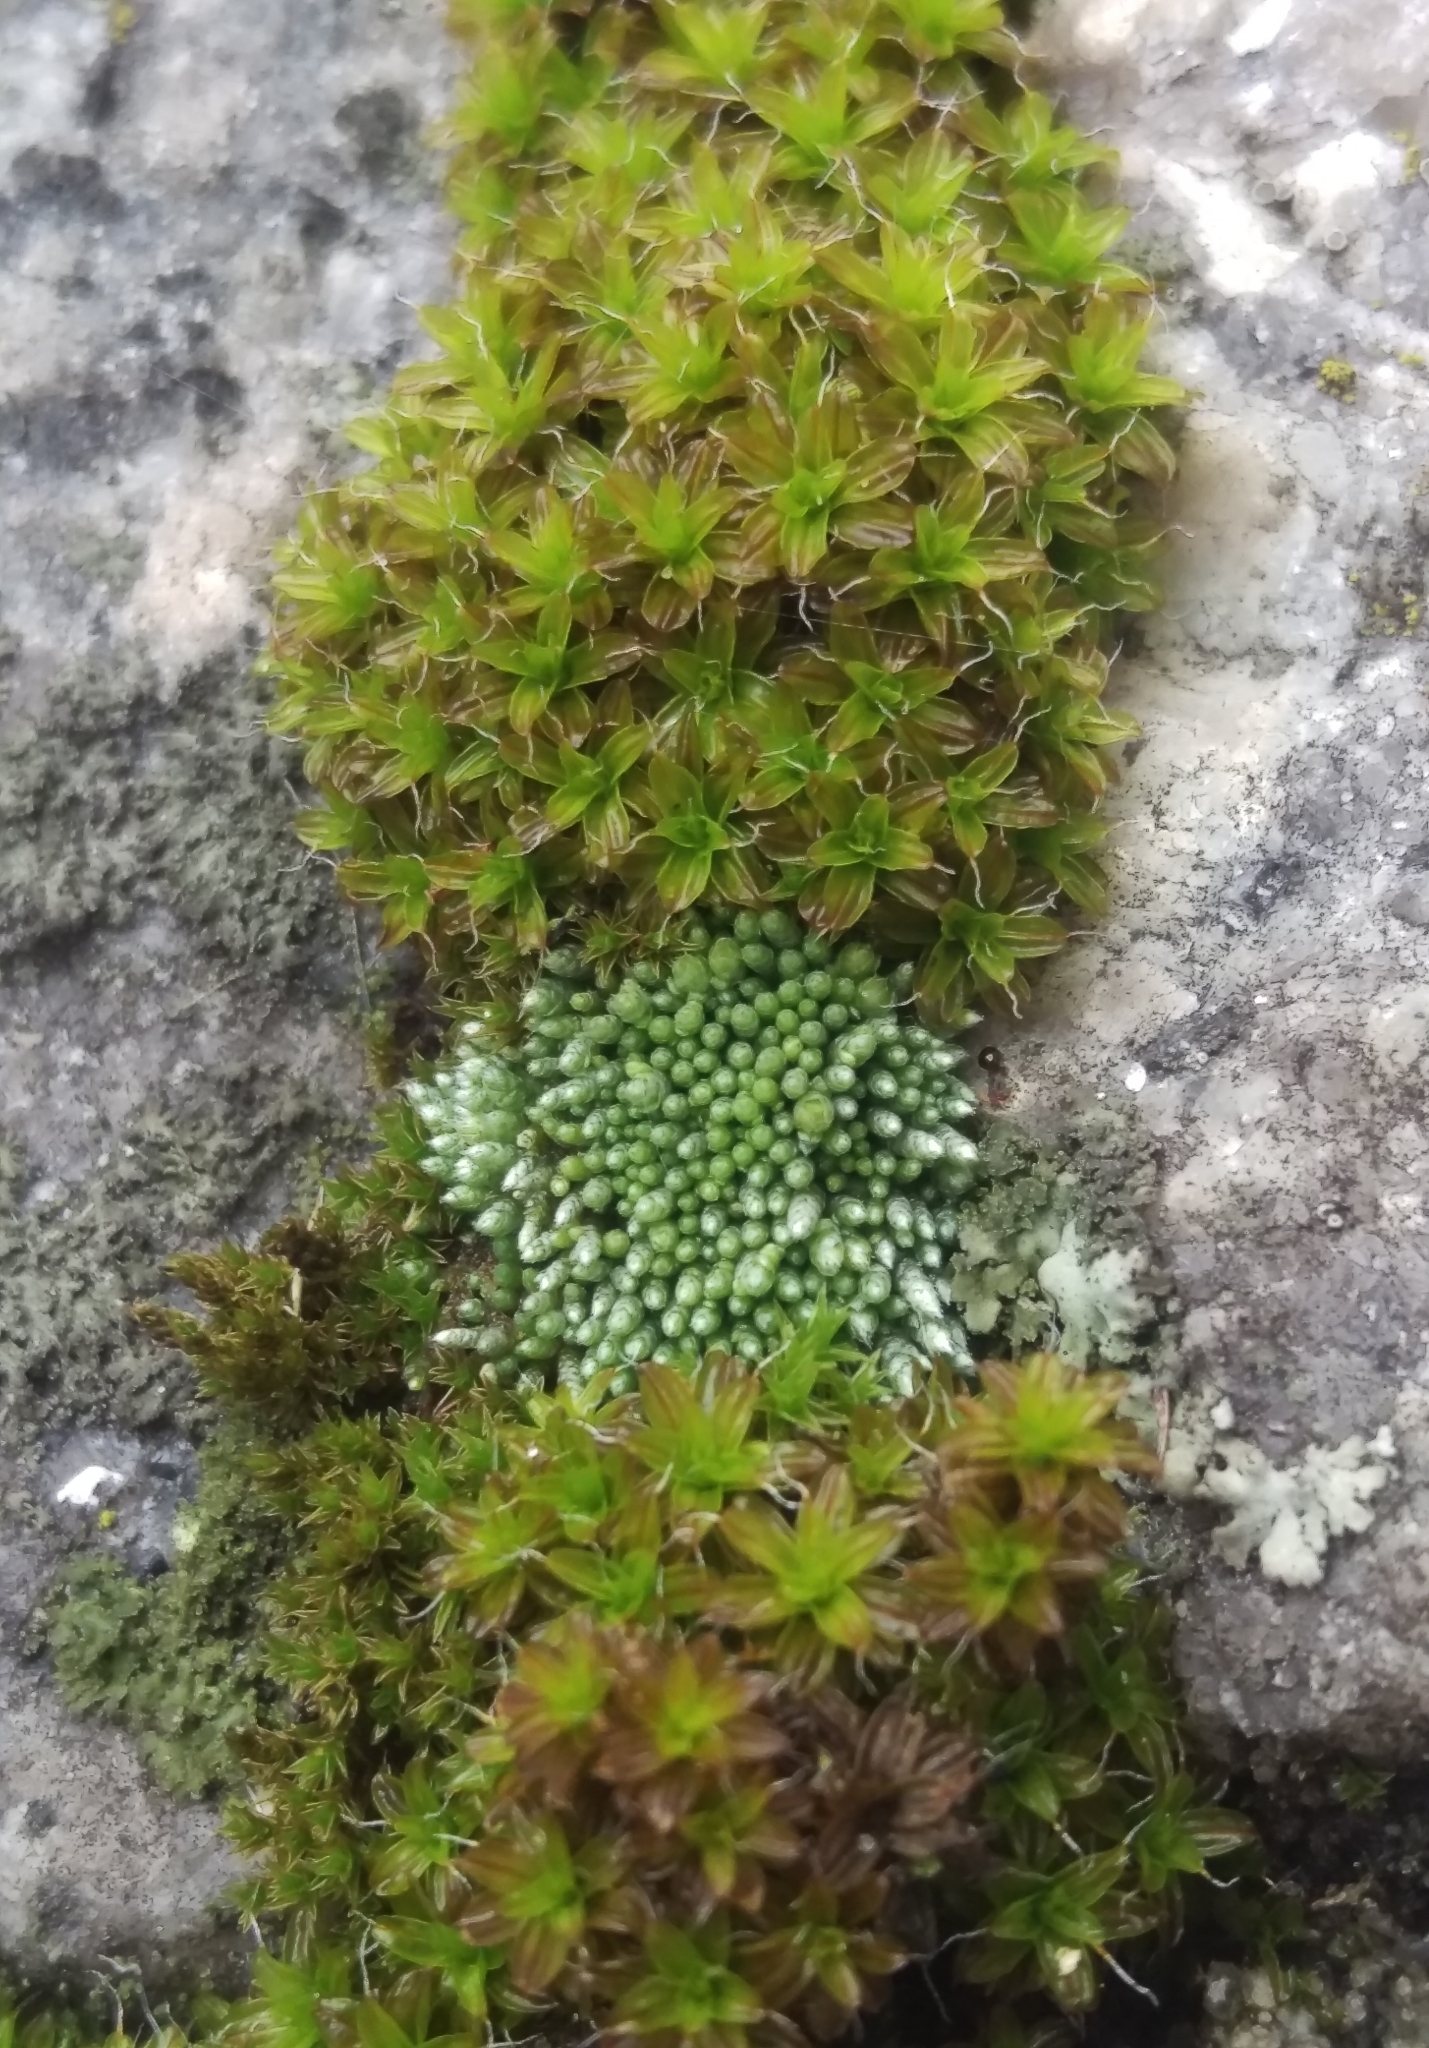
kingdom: Plantae
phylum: Bryophyta
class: Bryopsida
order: Bryales
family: Bryaceae
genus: Bryum
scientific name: Bryum argenteum
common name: Silver-moss
